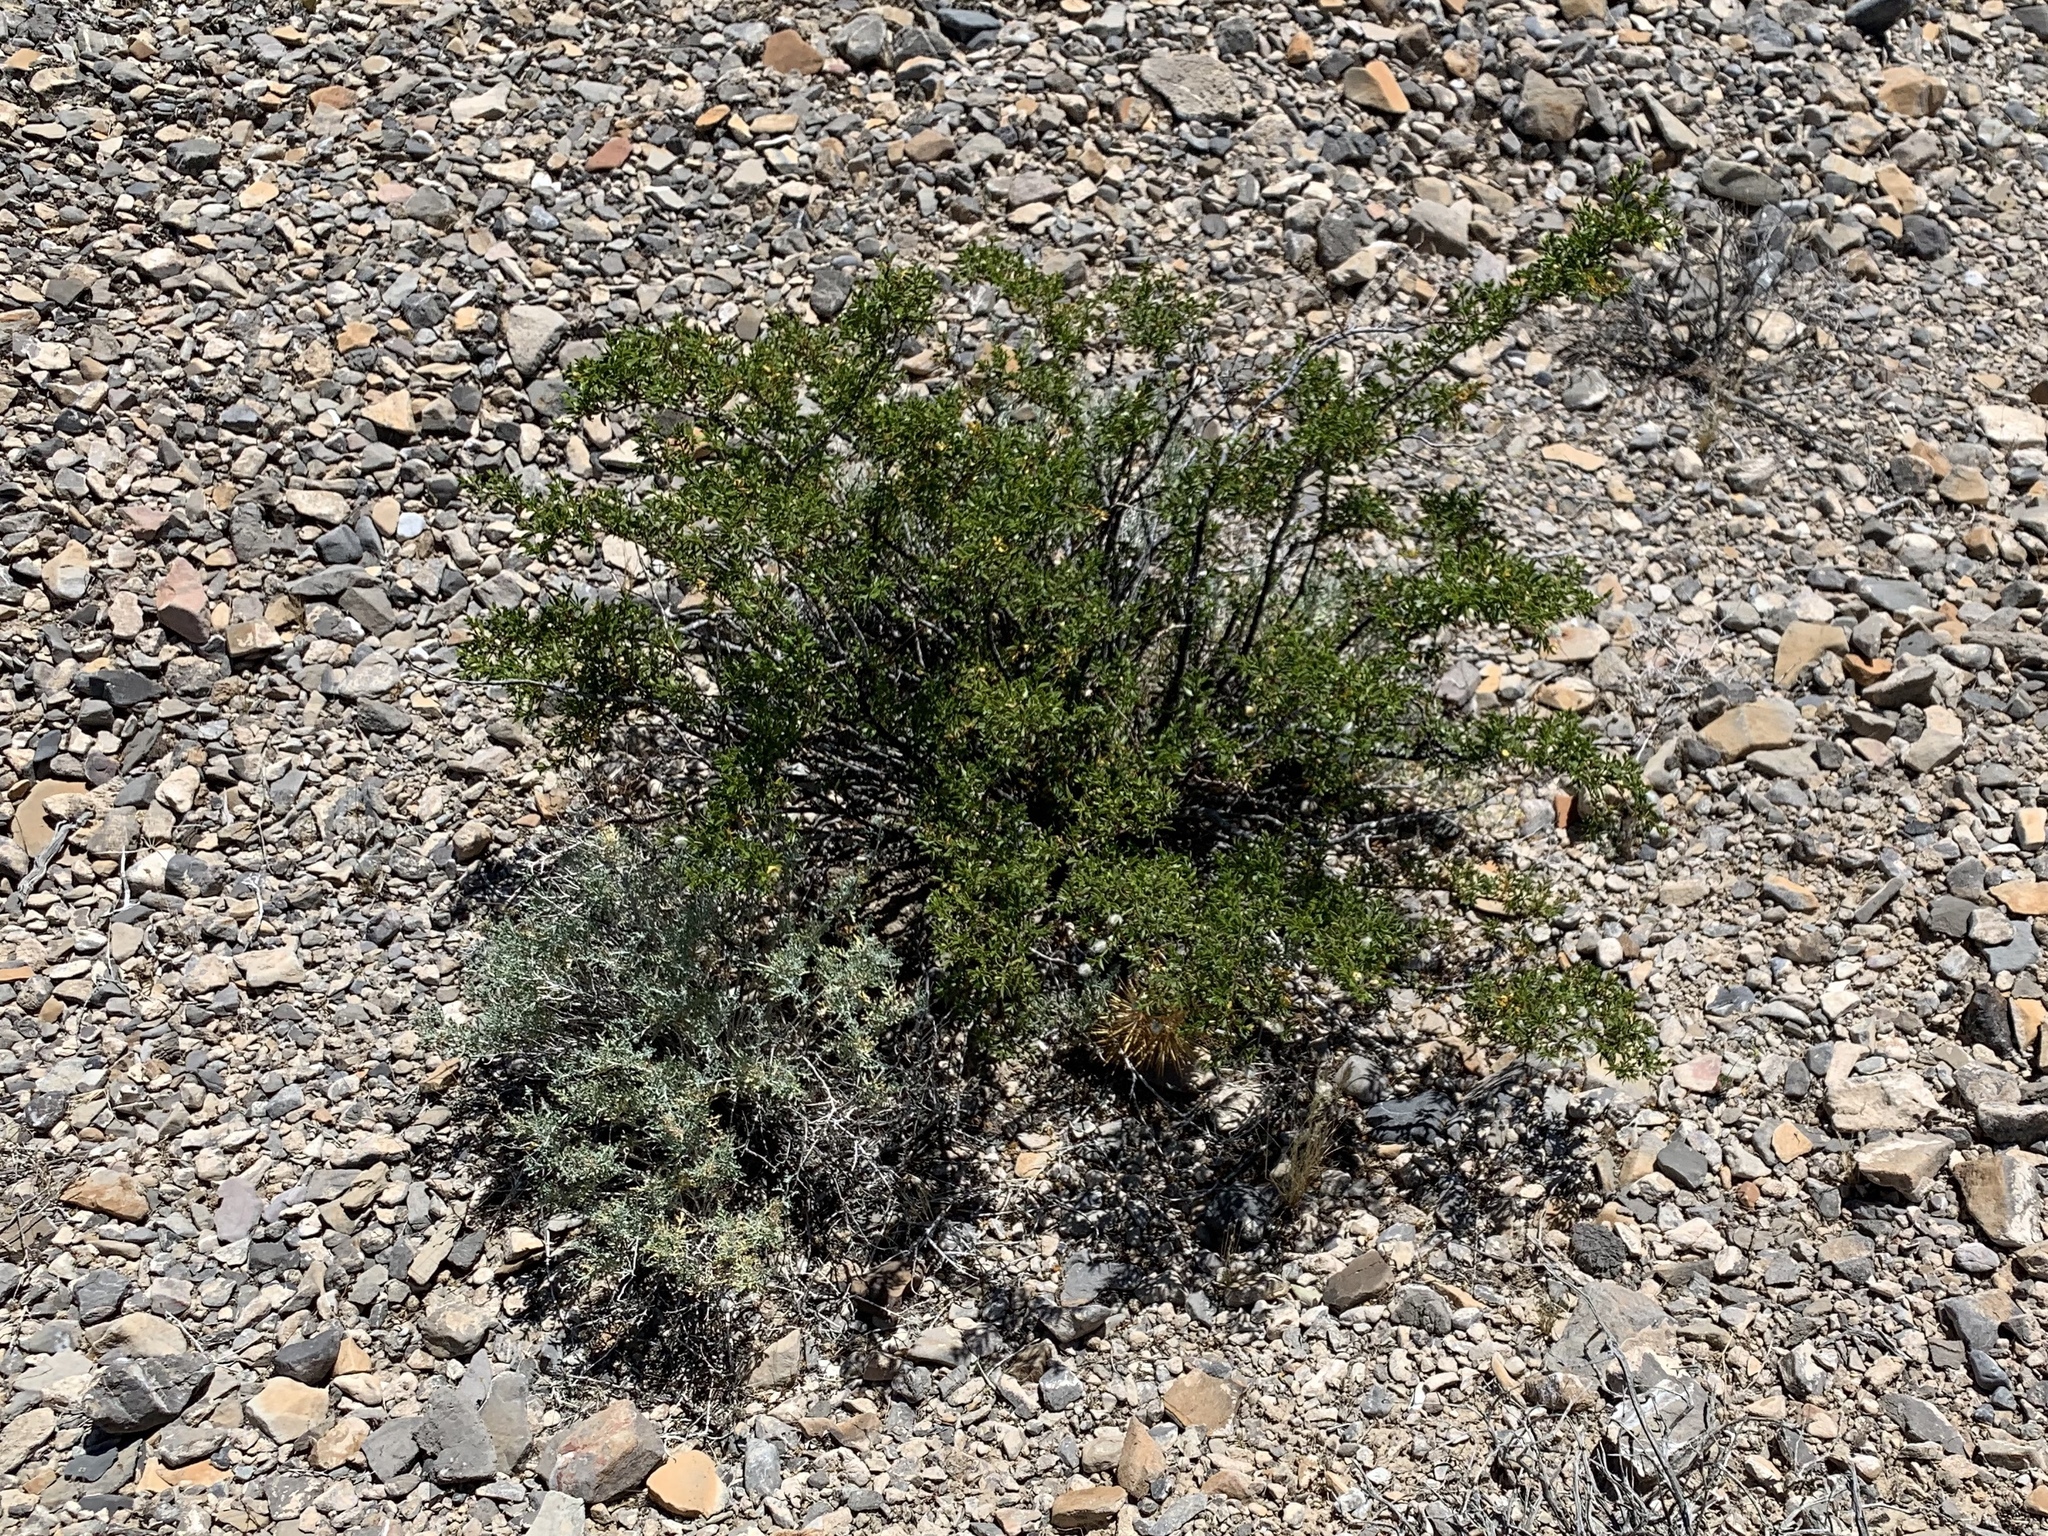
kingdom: Plantae
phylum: Tracheophyta
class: Magnoliopsida
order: Zygophyllales
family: Zygophyllaceae
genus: Larrea
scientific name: Larrea tridentata
